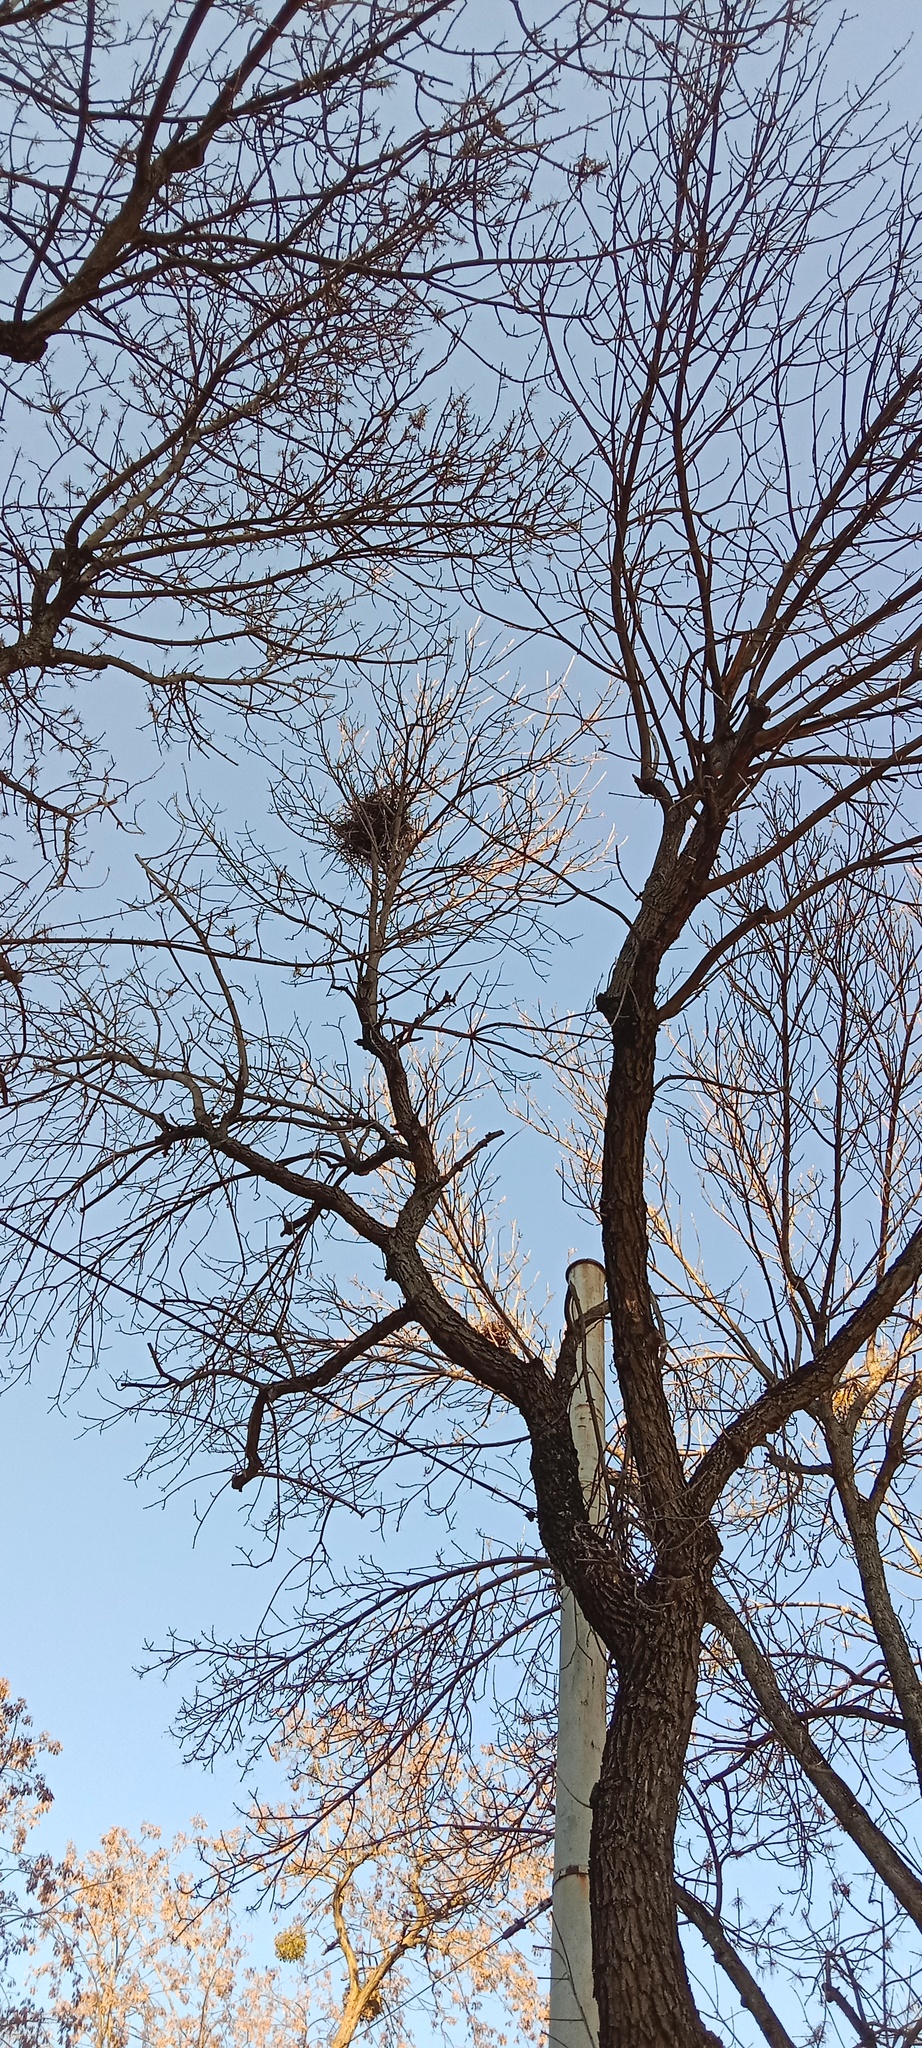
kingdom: Animalia
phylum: Chordata
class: Aves
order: Passeriformes
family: Corvidae
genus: Pica
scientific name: Pica pica
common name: Eurasian magpie
